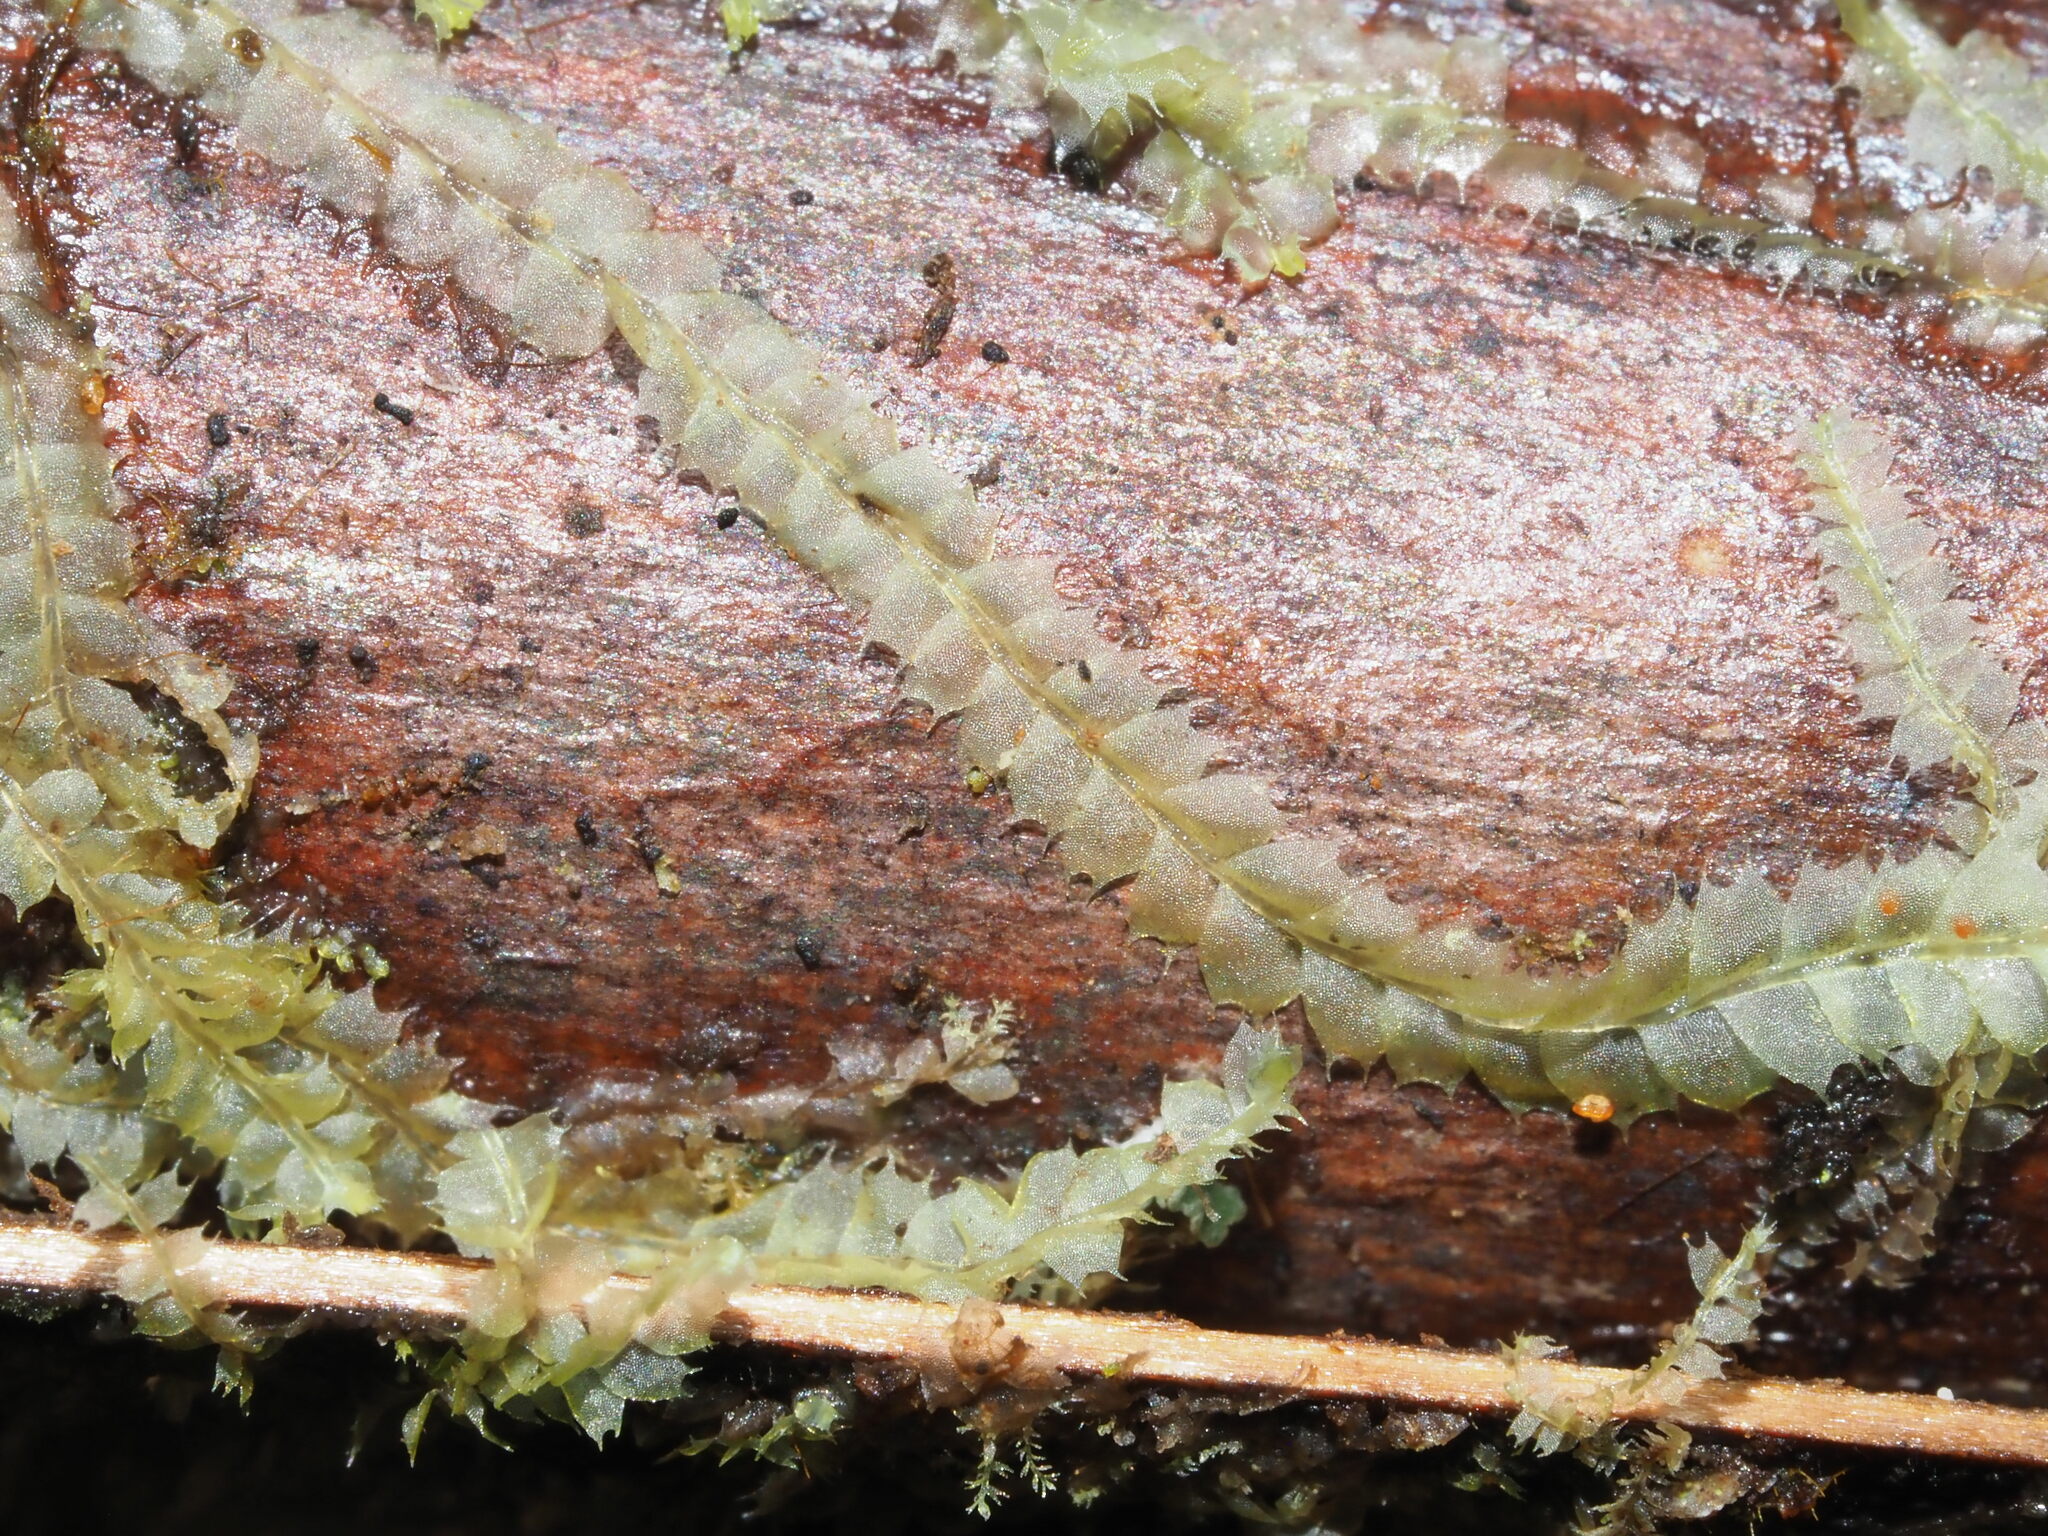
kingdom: Plantae
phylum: Marchantiophyta
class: Jungermanniopsida
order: Jungermanniales
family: Lophocoleaceae
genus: Lophocolea
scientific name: Lophocolea bicuspidata
